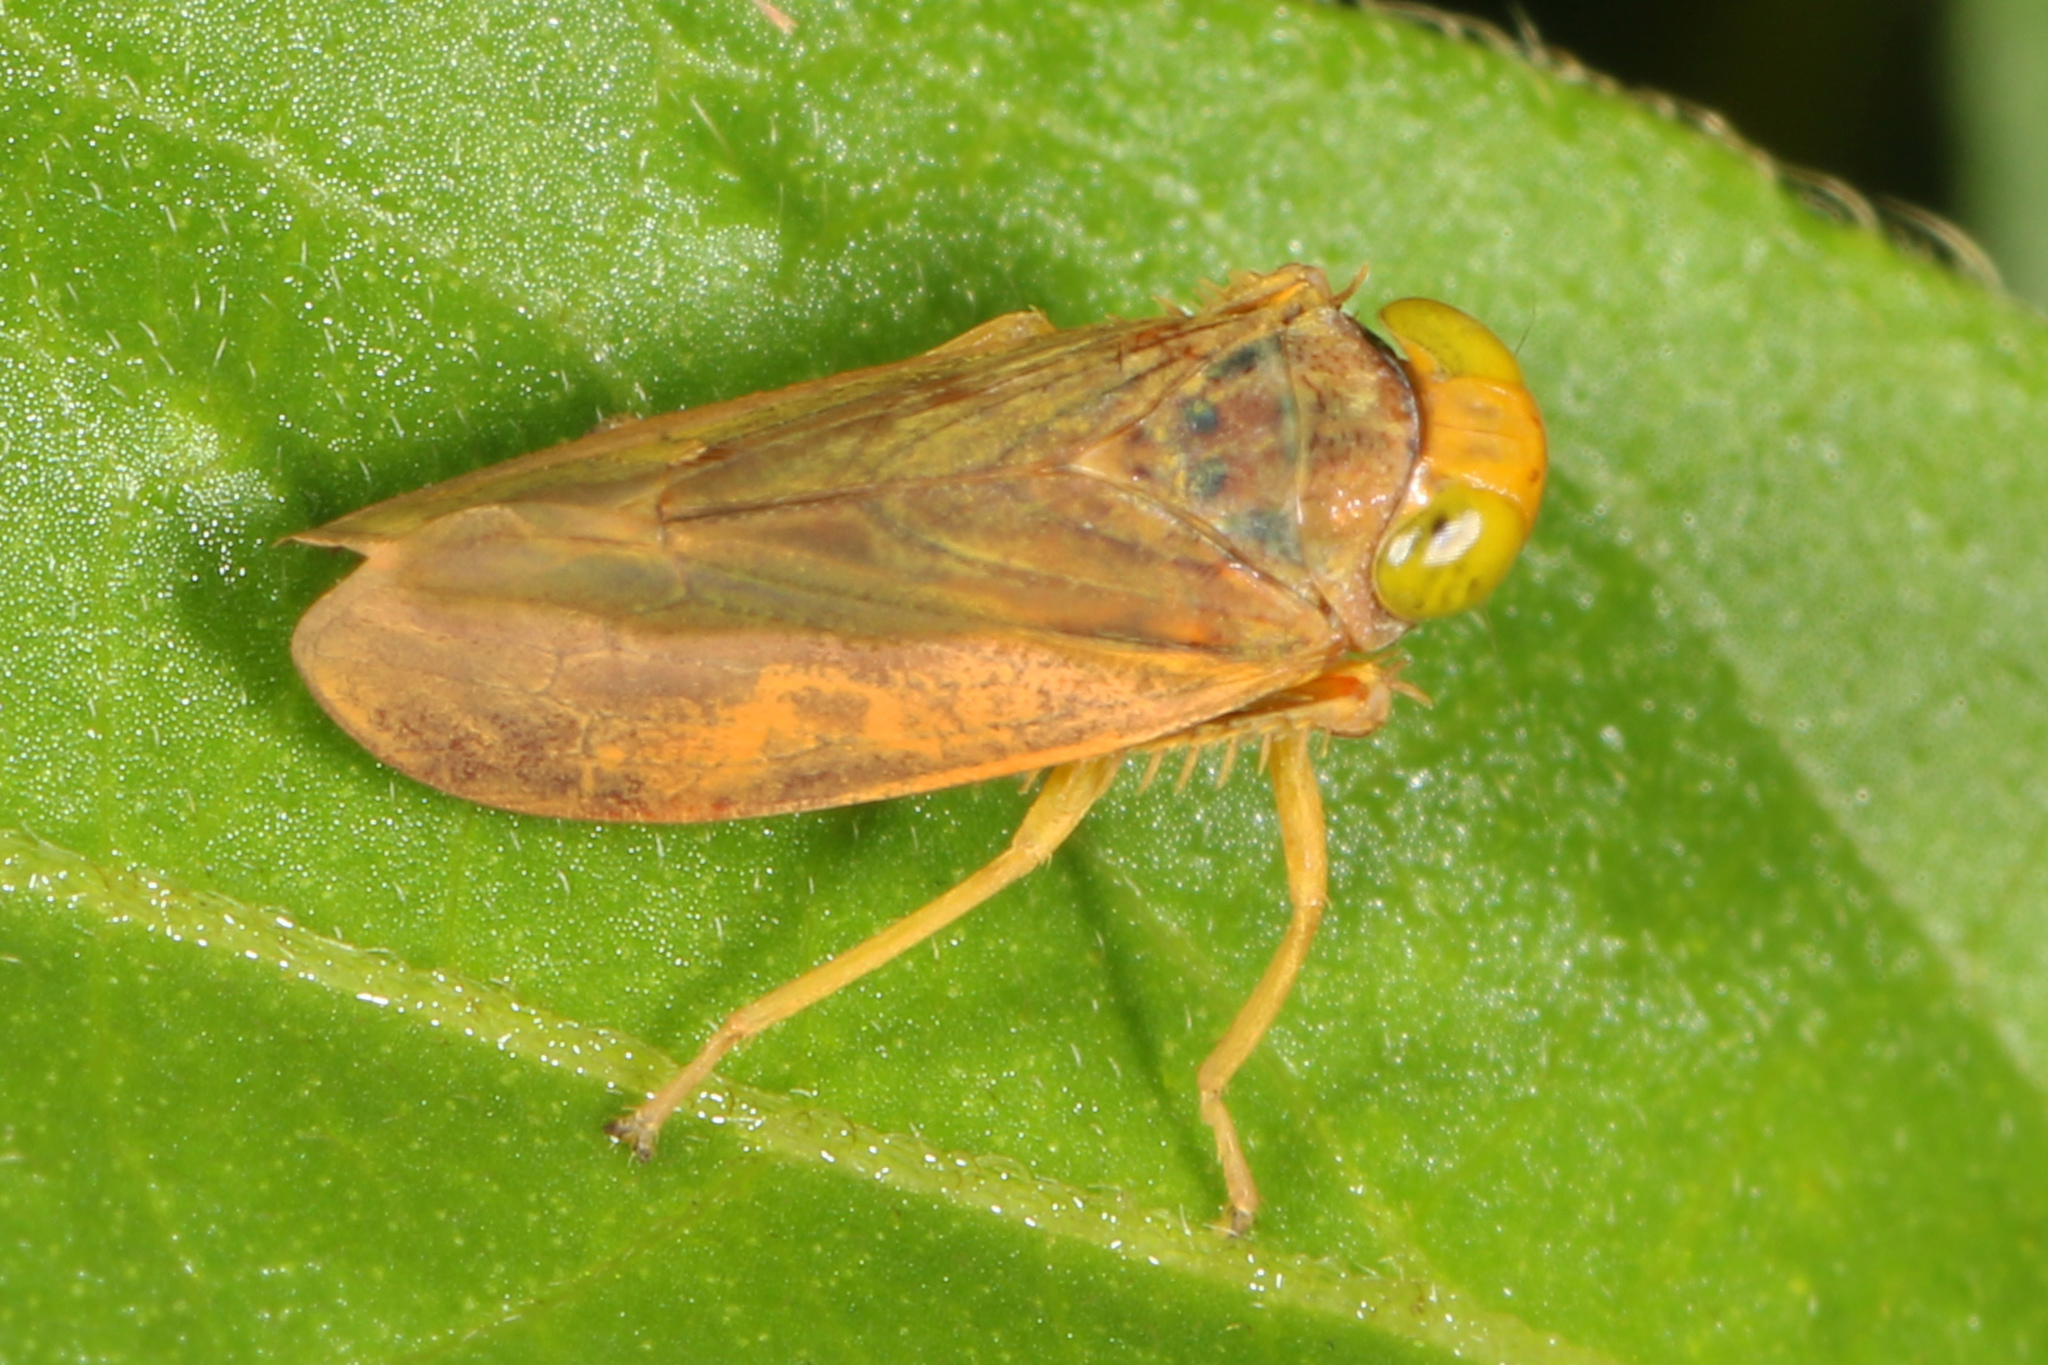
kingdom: Animalia
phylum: Arthropoda
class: Insecta
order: Hemiptera
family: Cicadellidae
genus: Jikradia
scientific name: Jikradia olitoria
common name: Coppery leafhopper
